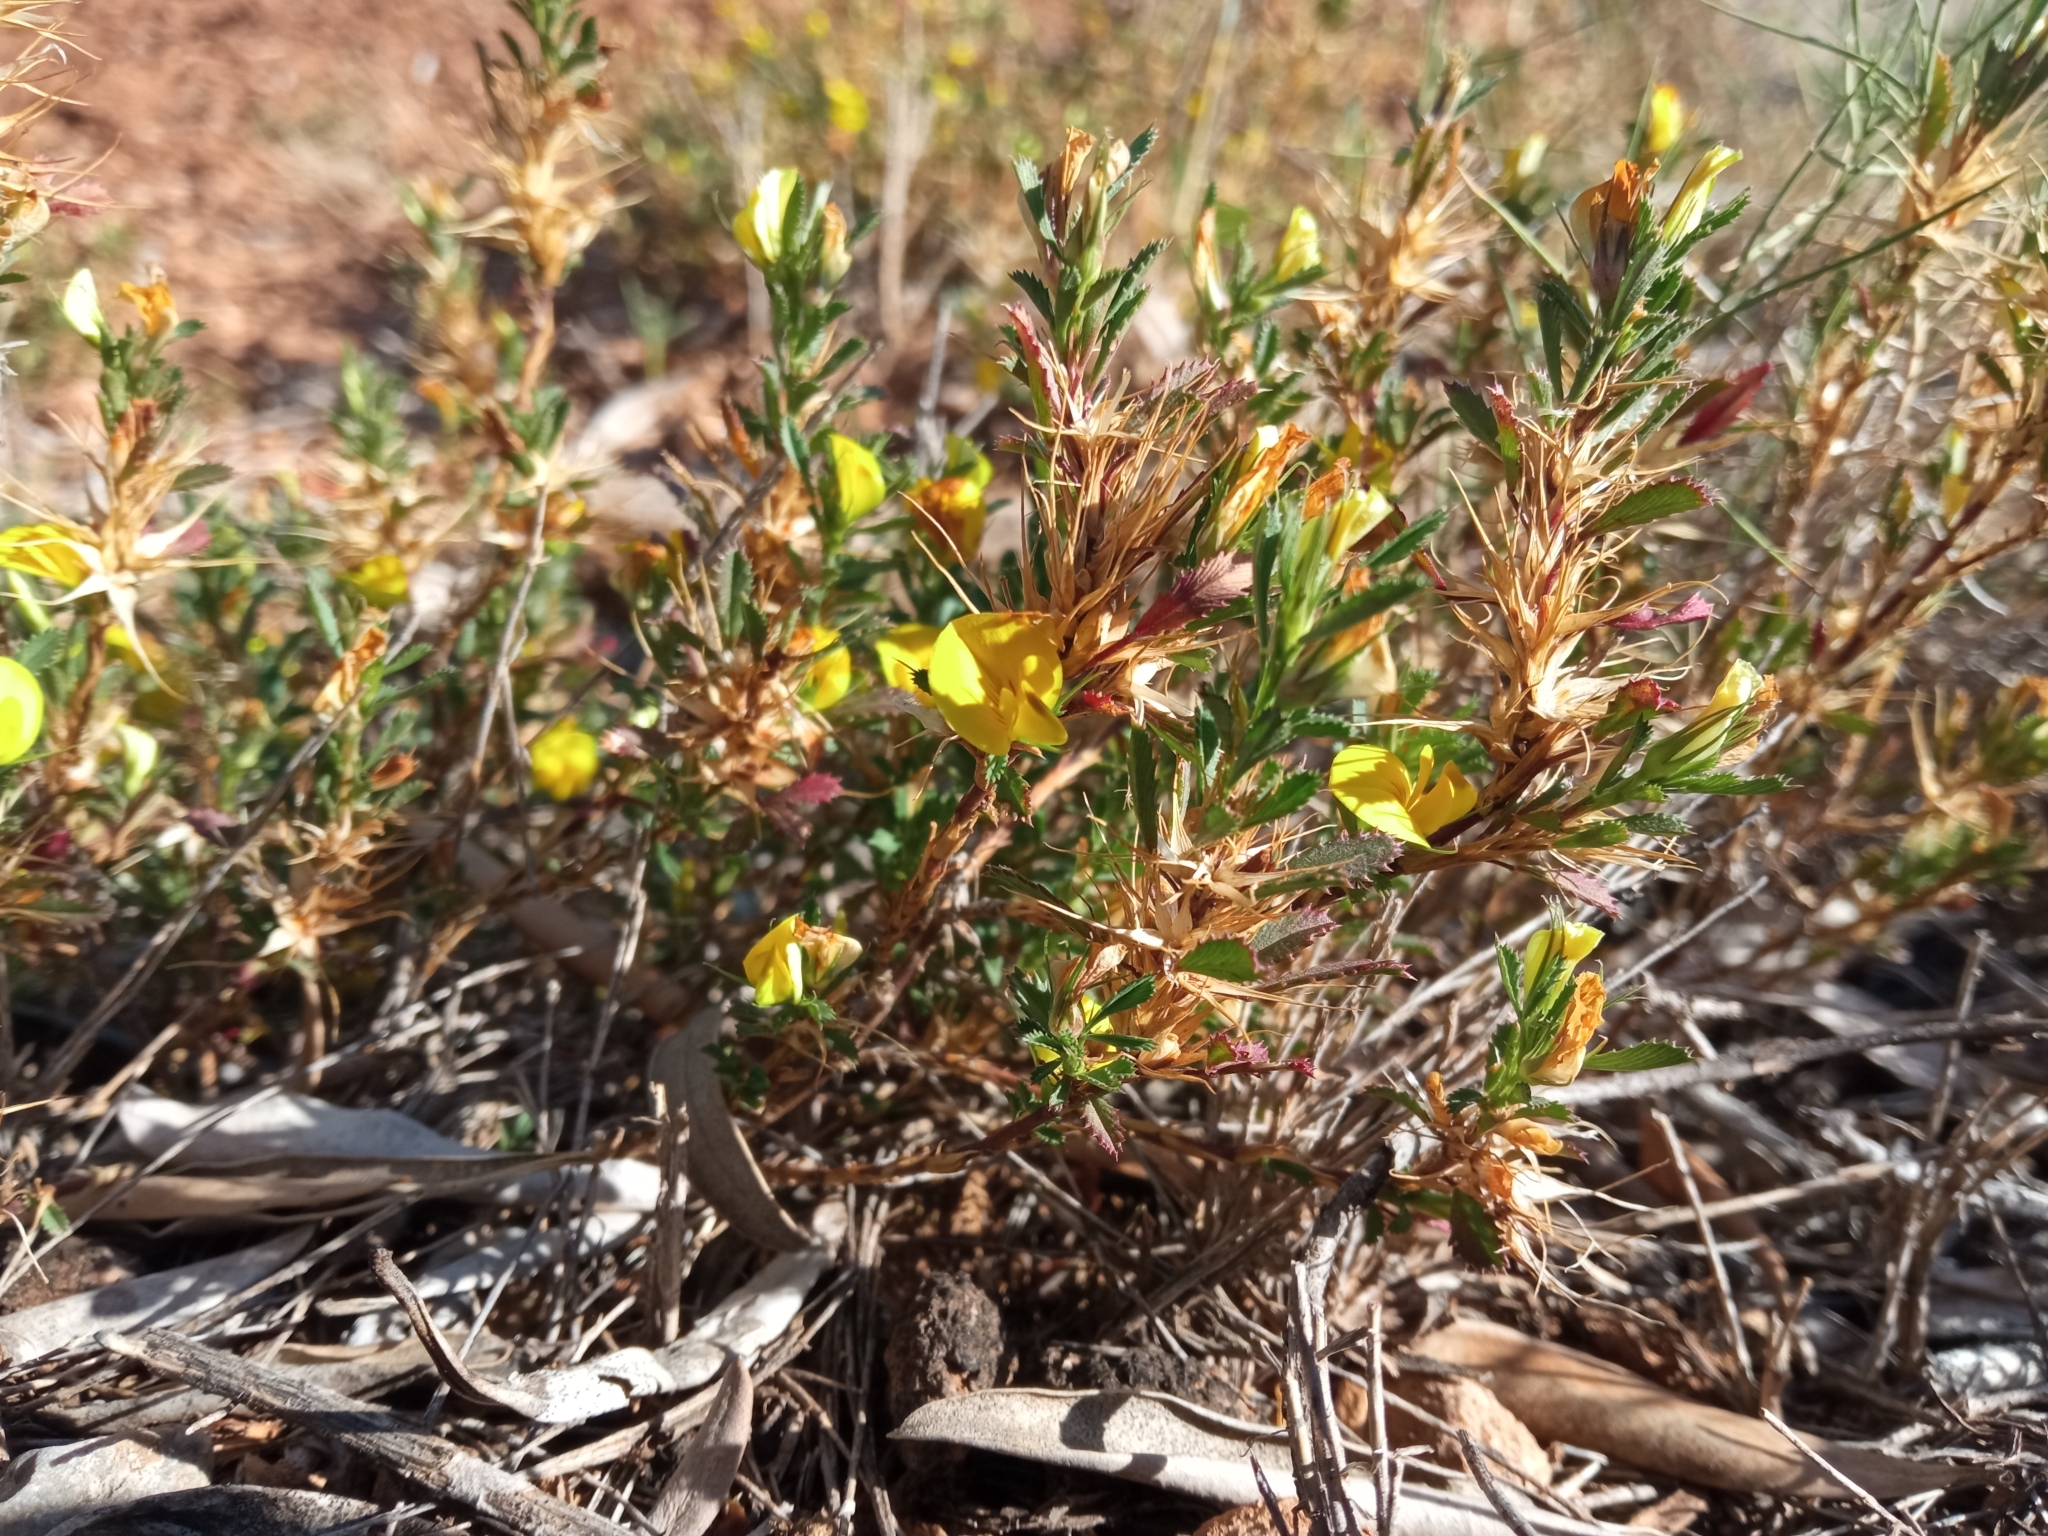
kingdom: Plantae
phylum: Tracheophyta
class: Magnoliopsida
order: Fabales
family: Fabaceae
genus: Ononis
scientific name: Ononis minutissima
